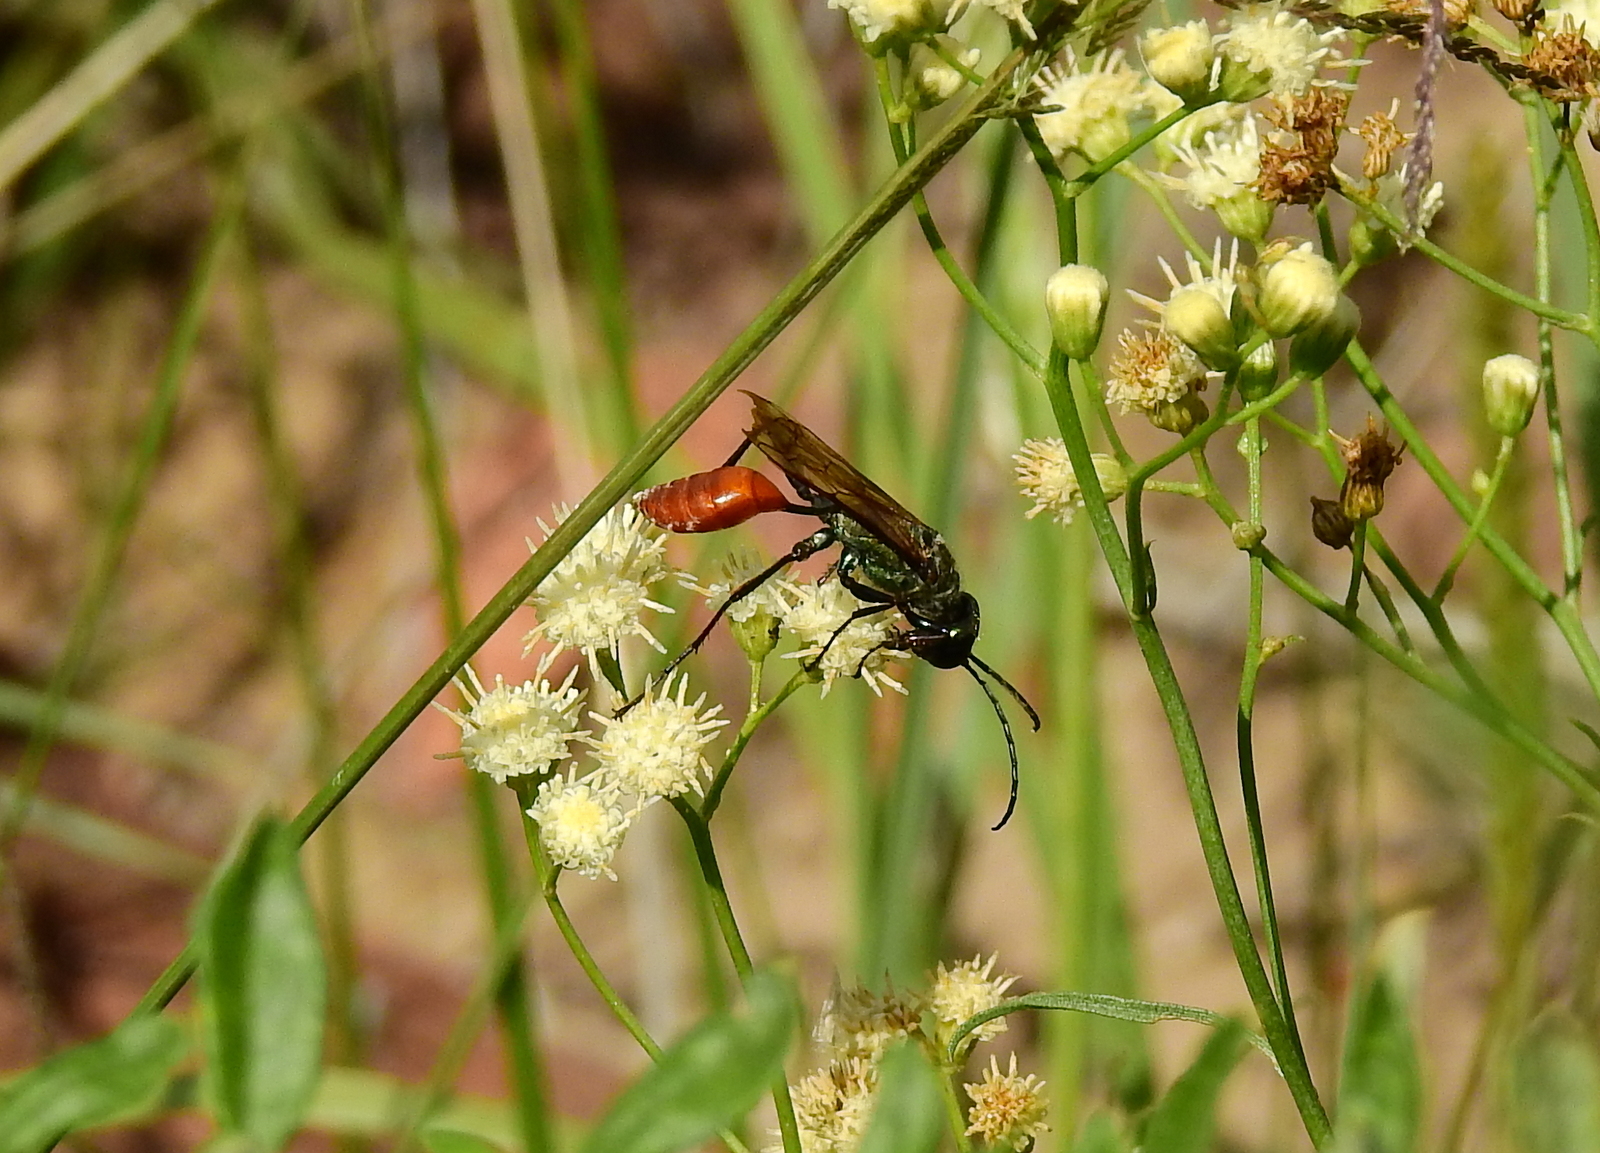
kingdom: Animalia
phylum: Arthropoda
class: Insecta
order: Hymenoptera
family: Sphecidae
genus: Chlorion
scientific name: Chlorion hemipyrrhum
